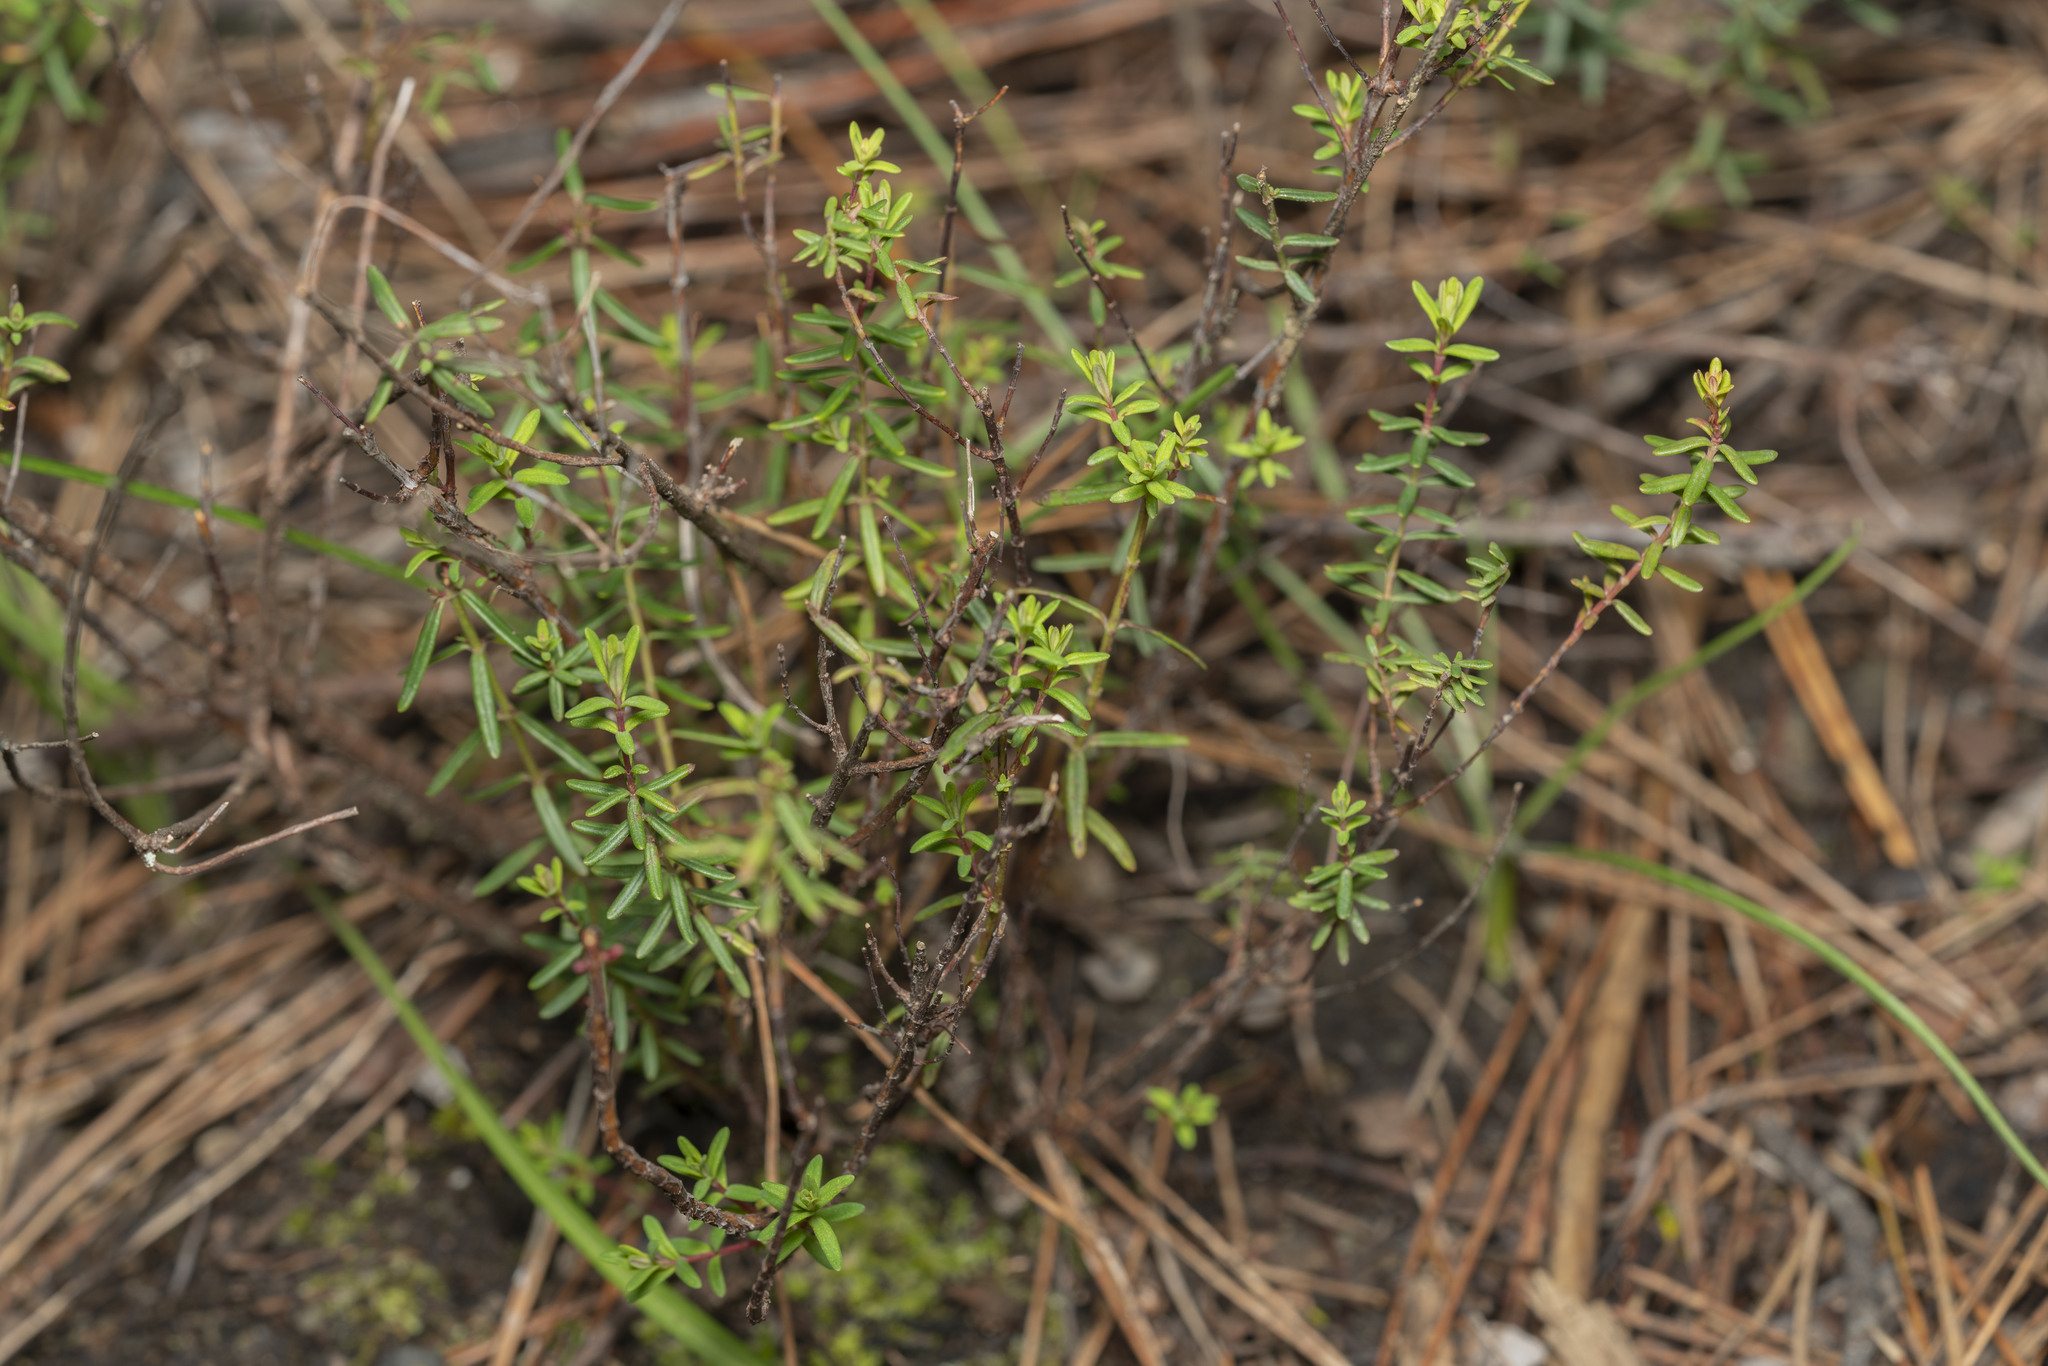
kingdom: Plantae
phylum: Tracheophyta
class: Magnoliopsida
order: Malpighiales
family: Hypericaceae
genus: Hypericum
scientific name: Hypericum empetrifolium
